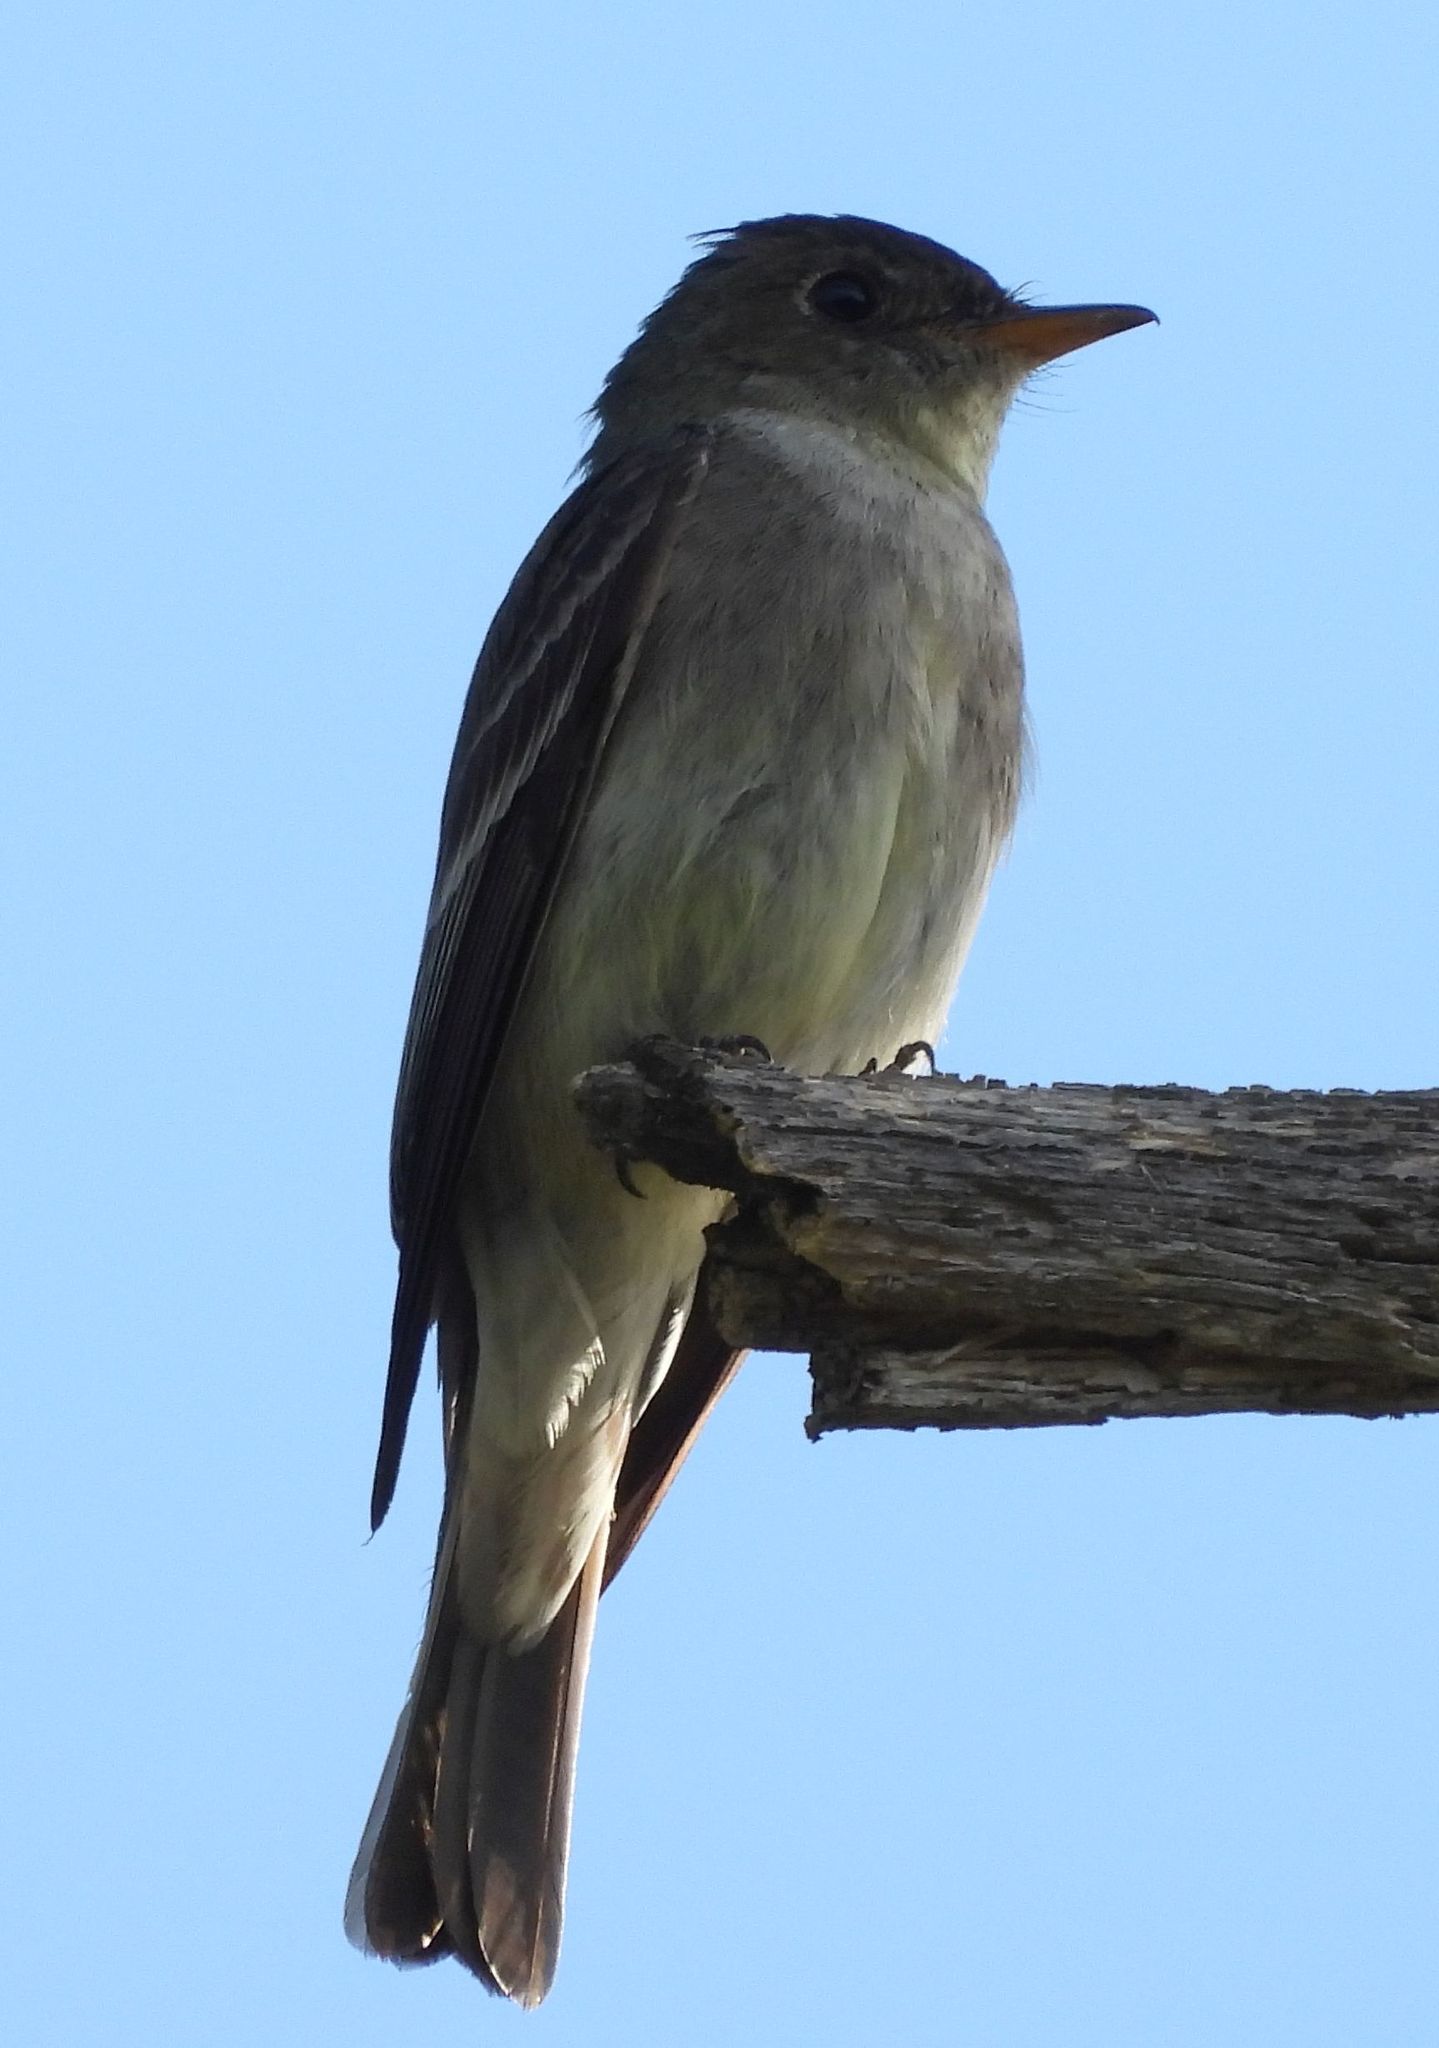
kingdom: Animalia
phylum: Chordata
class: Aves
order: Passeriformes
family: Tyrannidae
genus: Contopus
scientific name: Contopus virens
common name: Eastern wood-pewee
